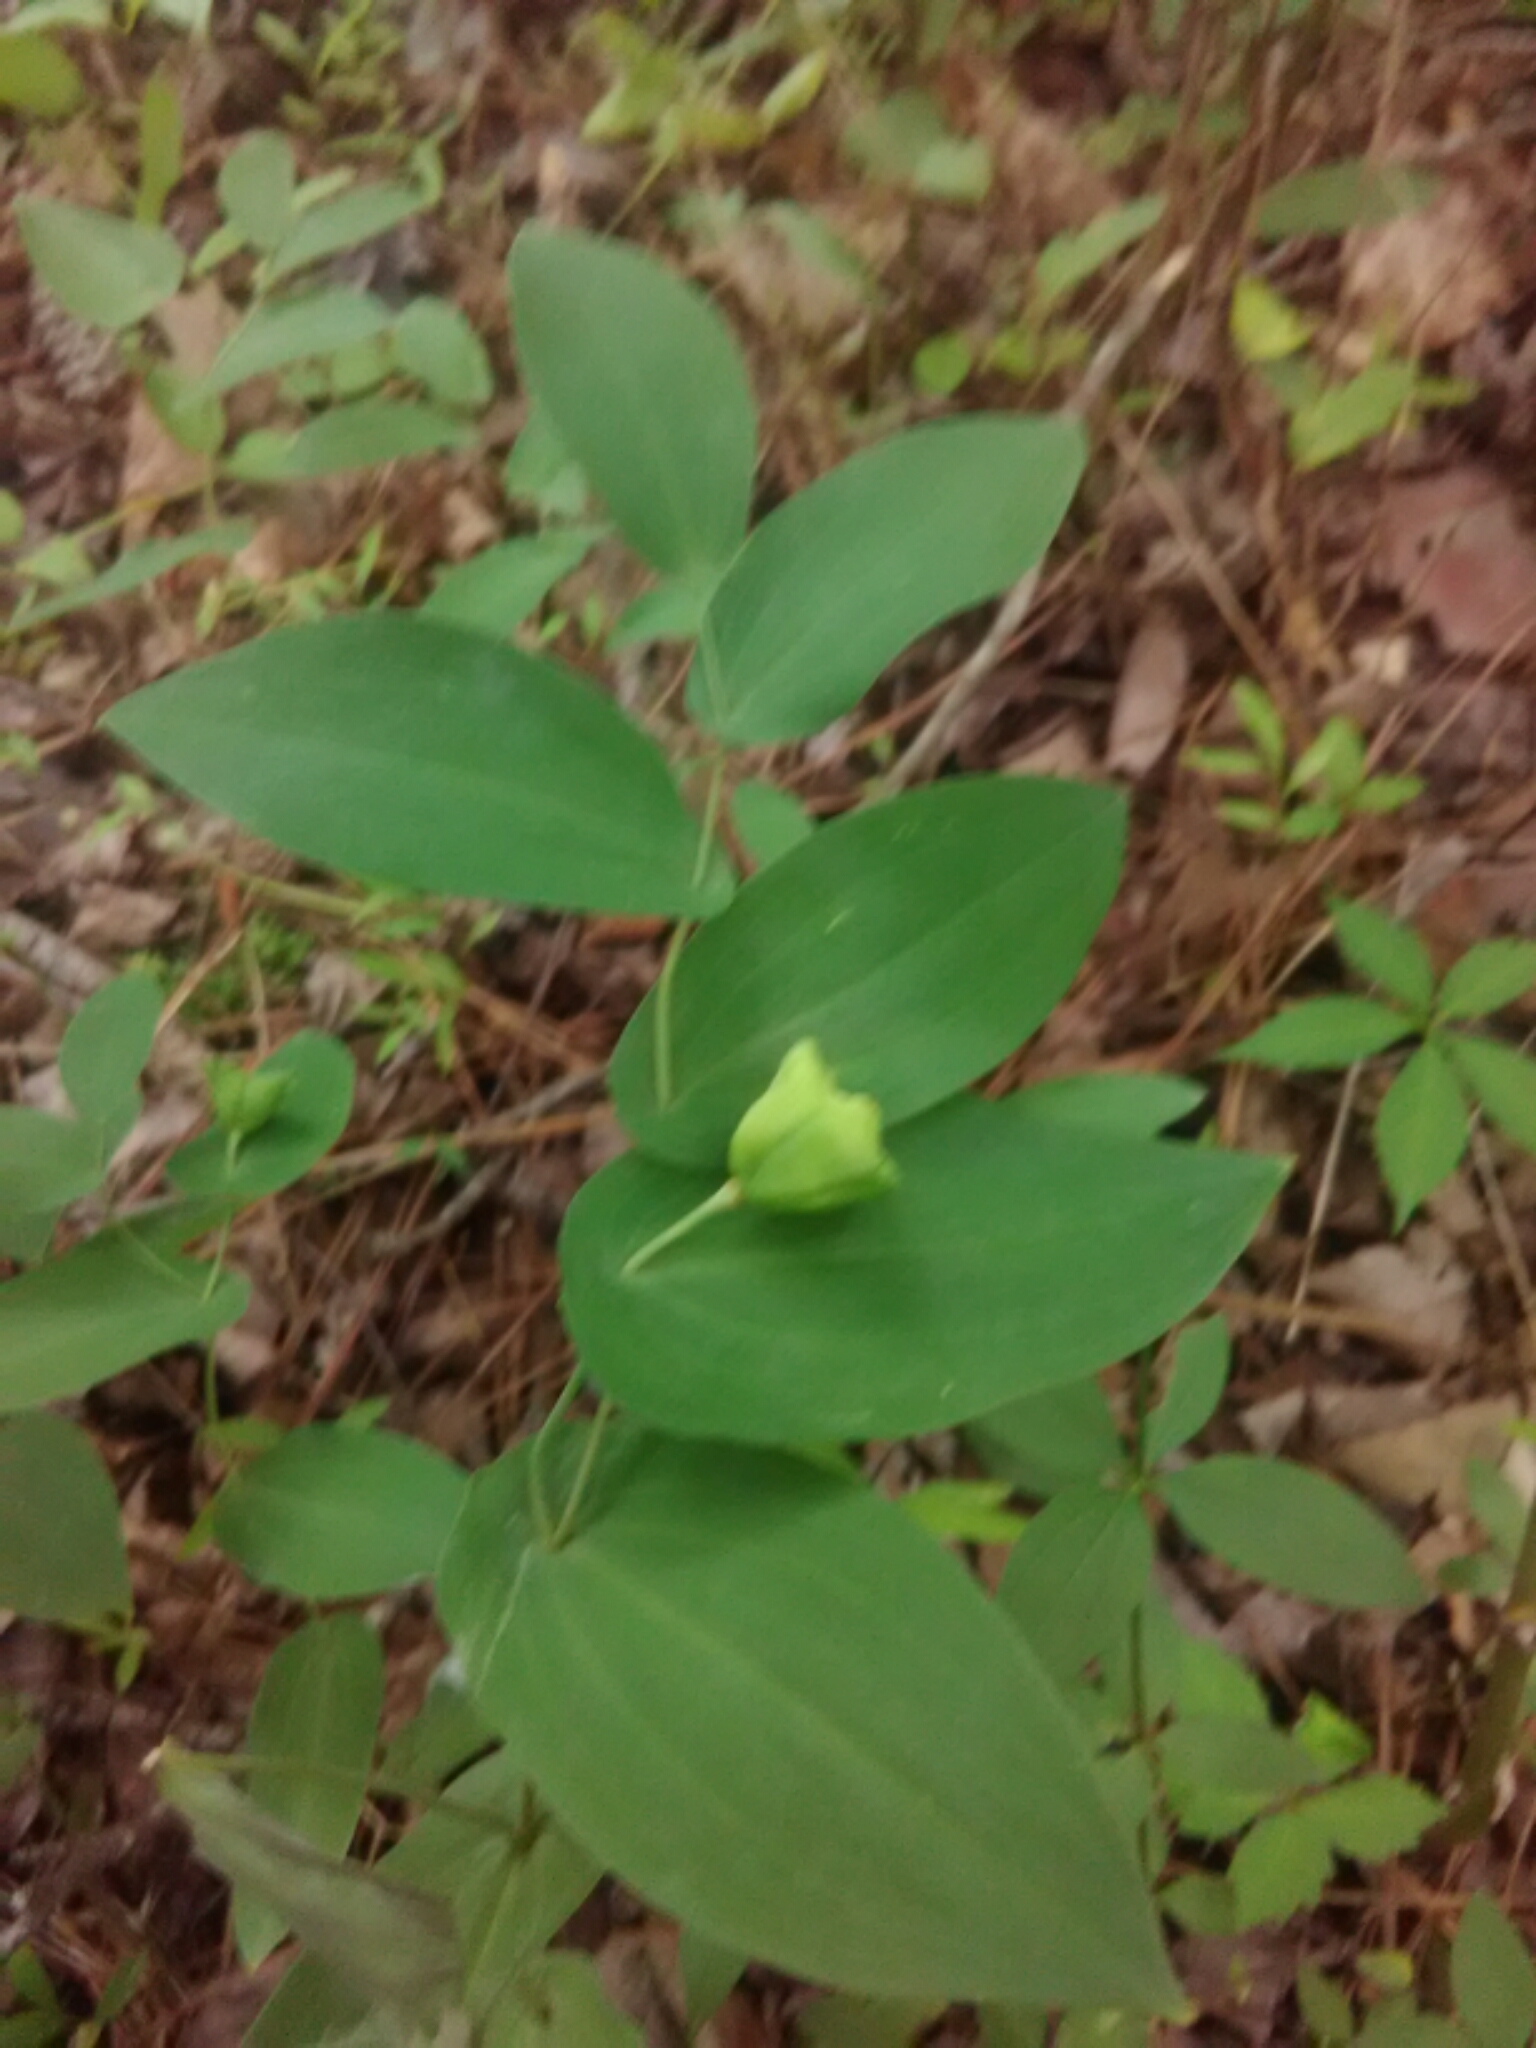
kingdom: Plantae
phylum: Tracheophyta
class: Liliopsida
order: Liliales
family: Colchicaceae
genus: Uvularia
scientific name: Uvularia perfoliata
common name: Perfoliate bellwort
